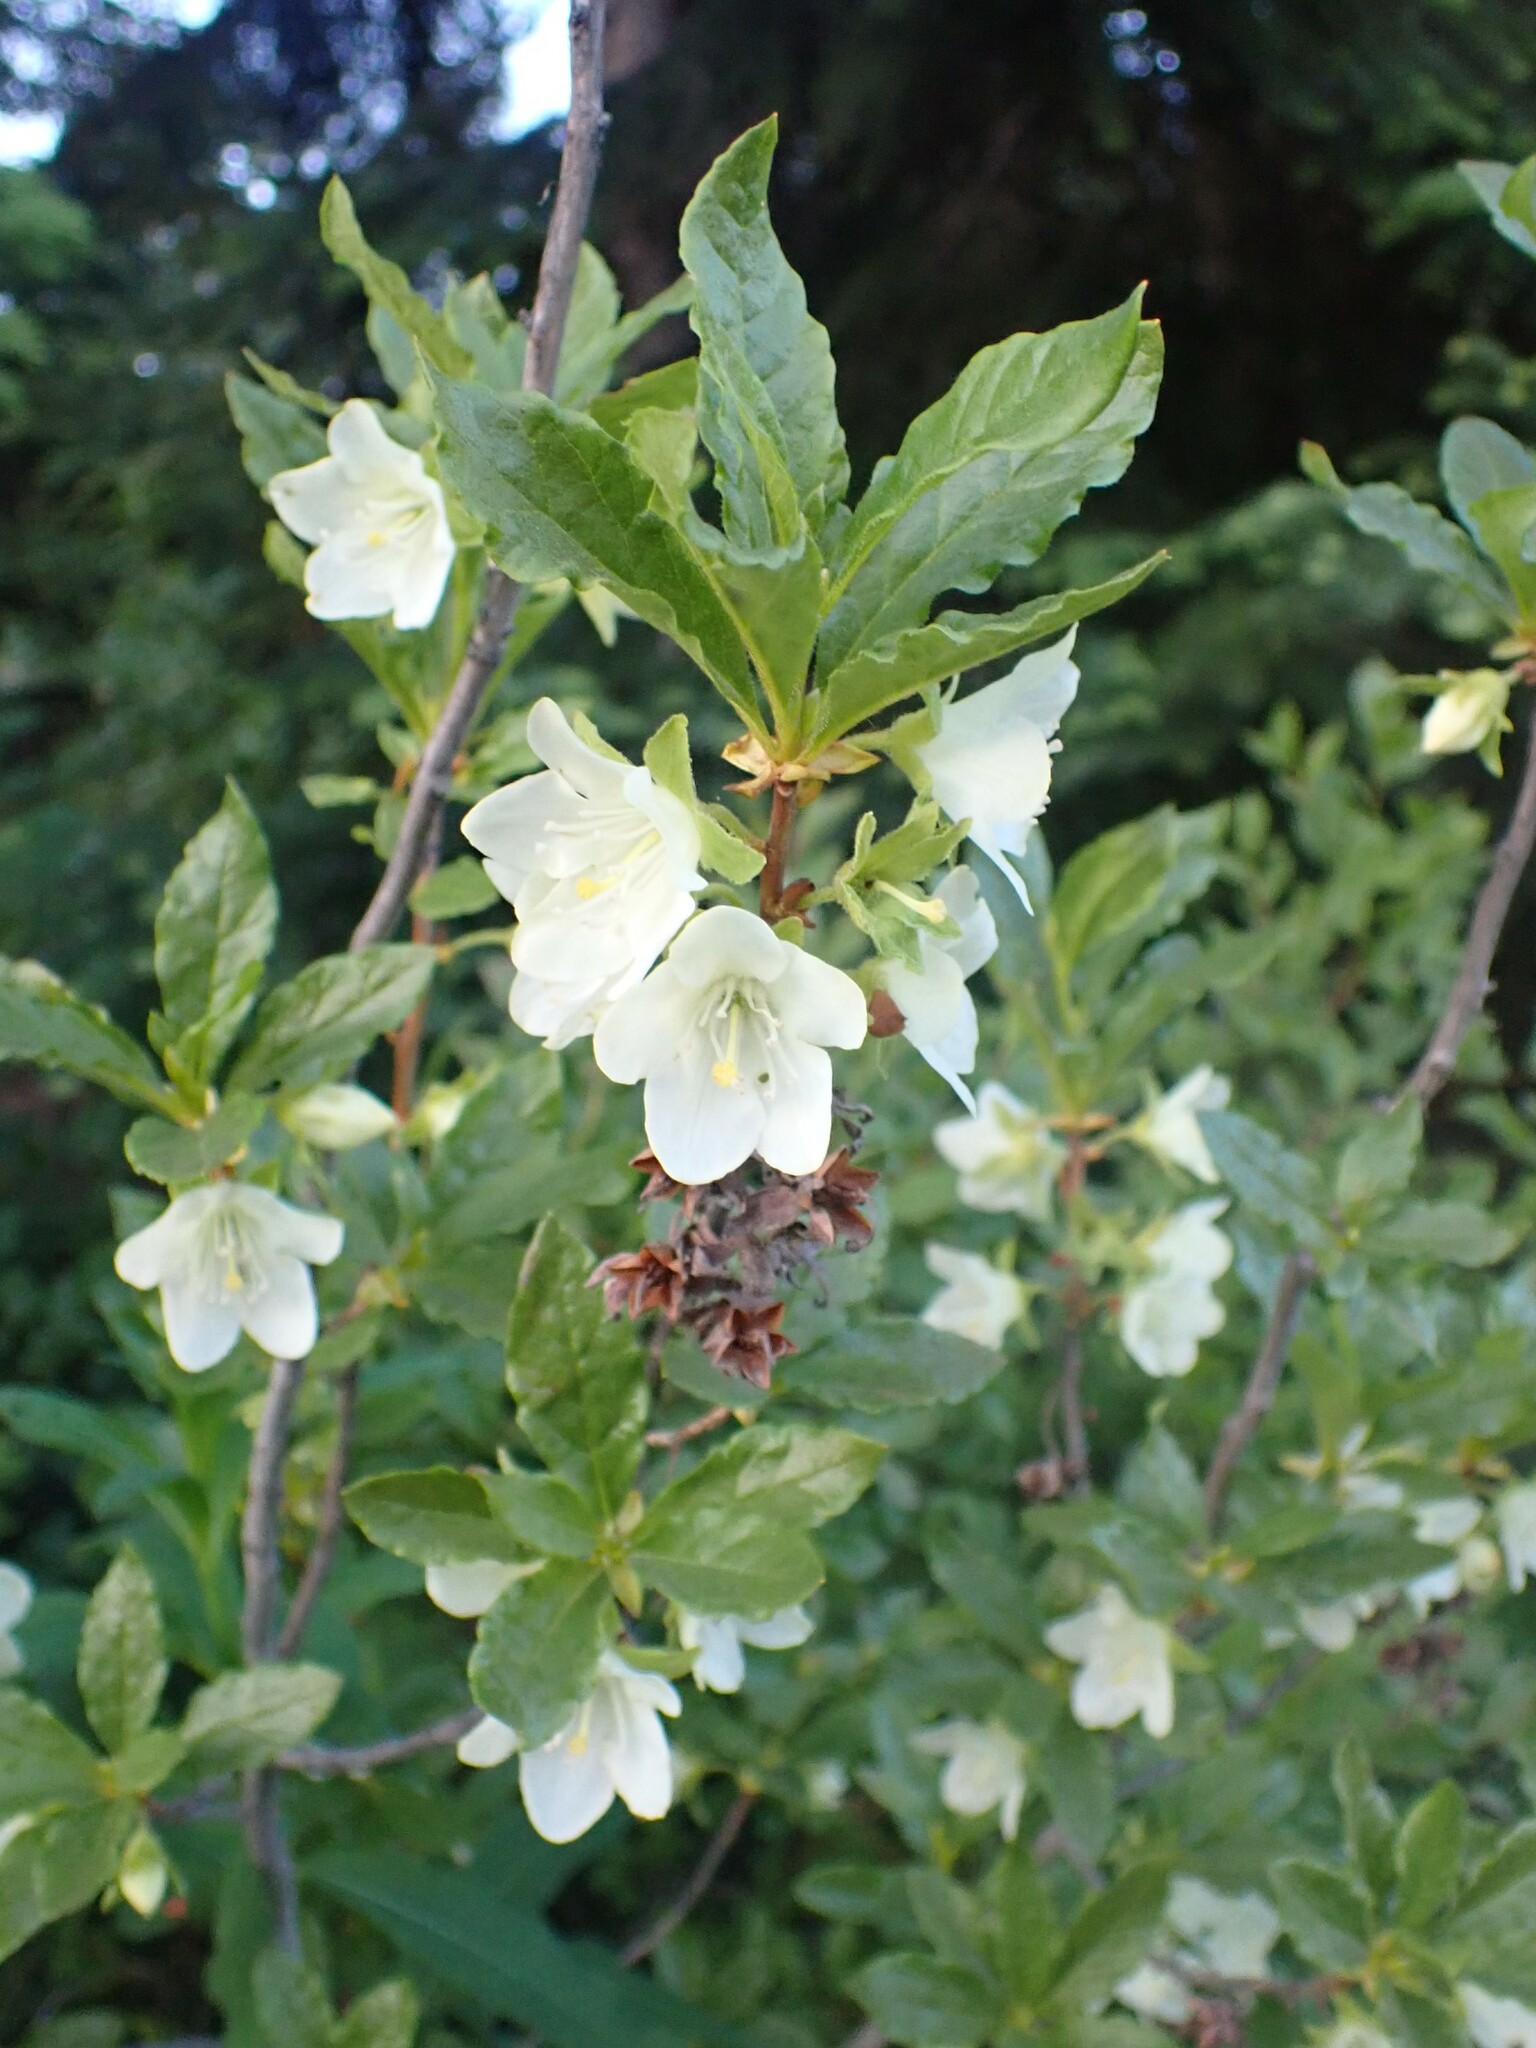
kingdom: Plantae
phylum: Tracheophyta
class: Magnoliopsida
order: Ericales
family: Ericaceae
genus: Rhododendron
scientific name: Rhododendron albiflorum
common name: White rhododendron
